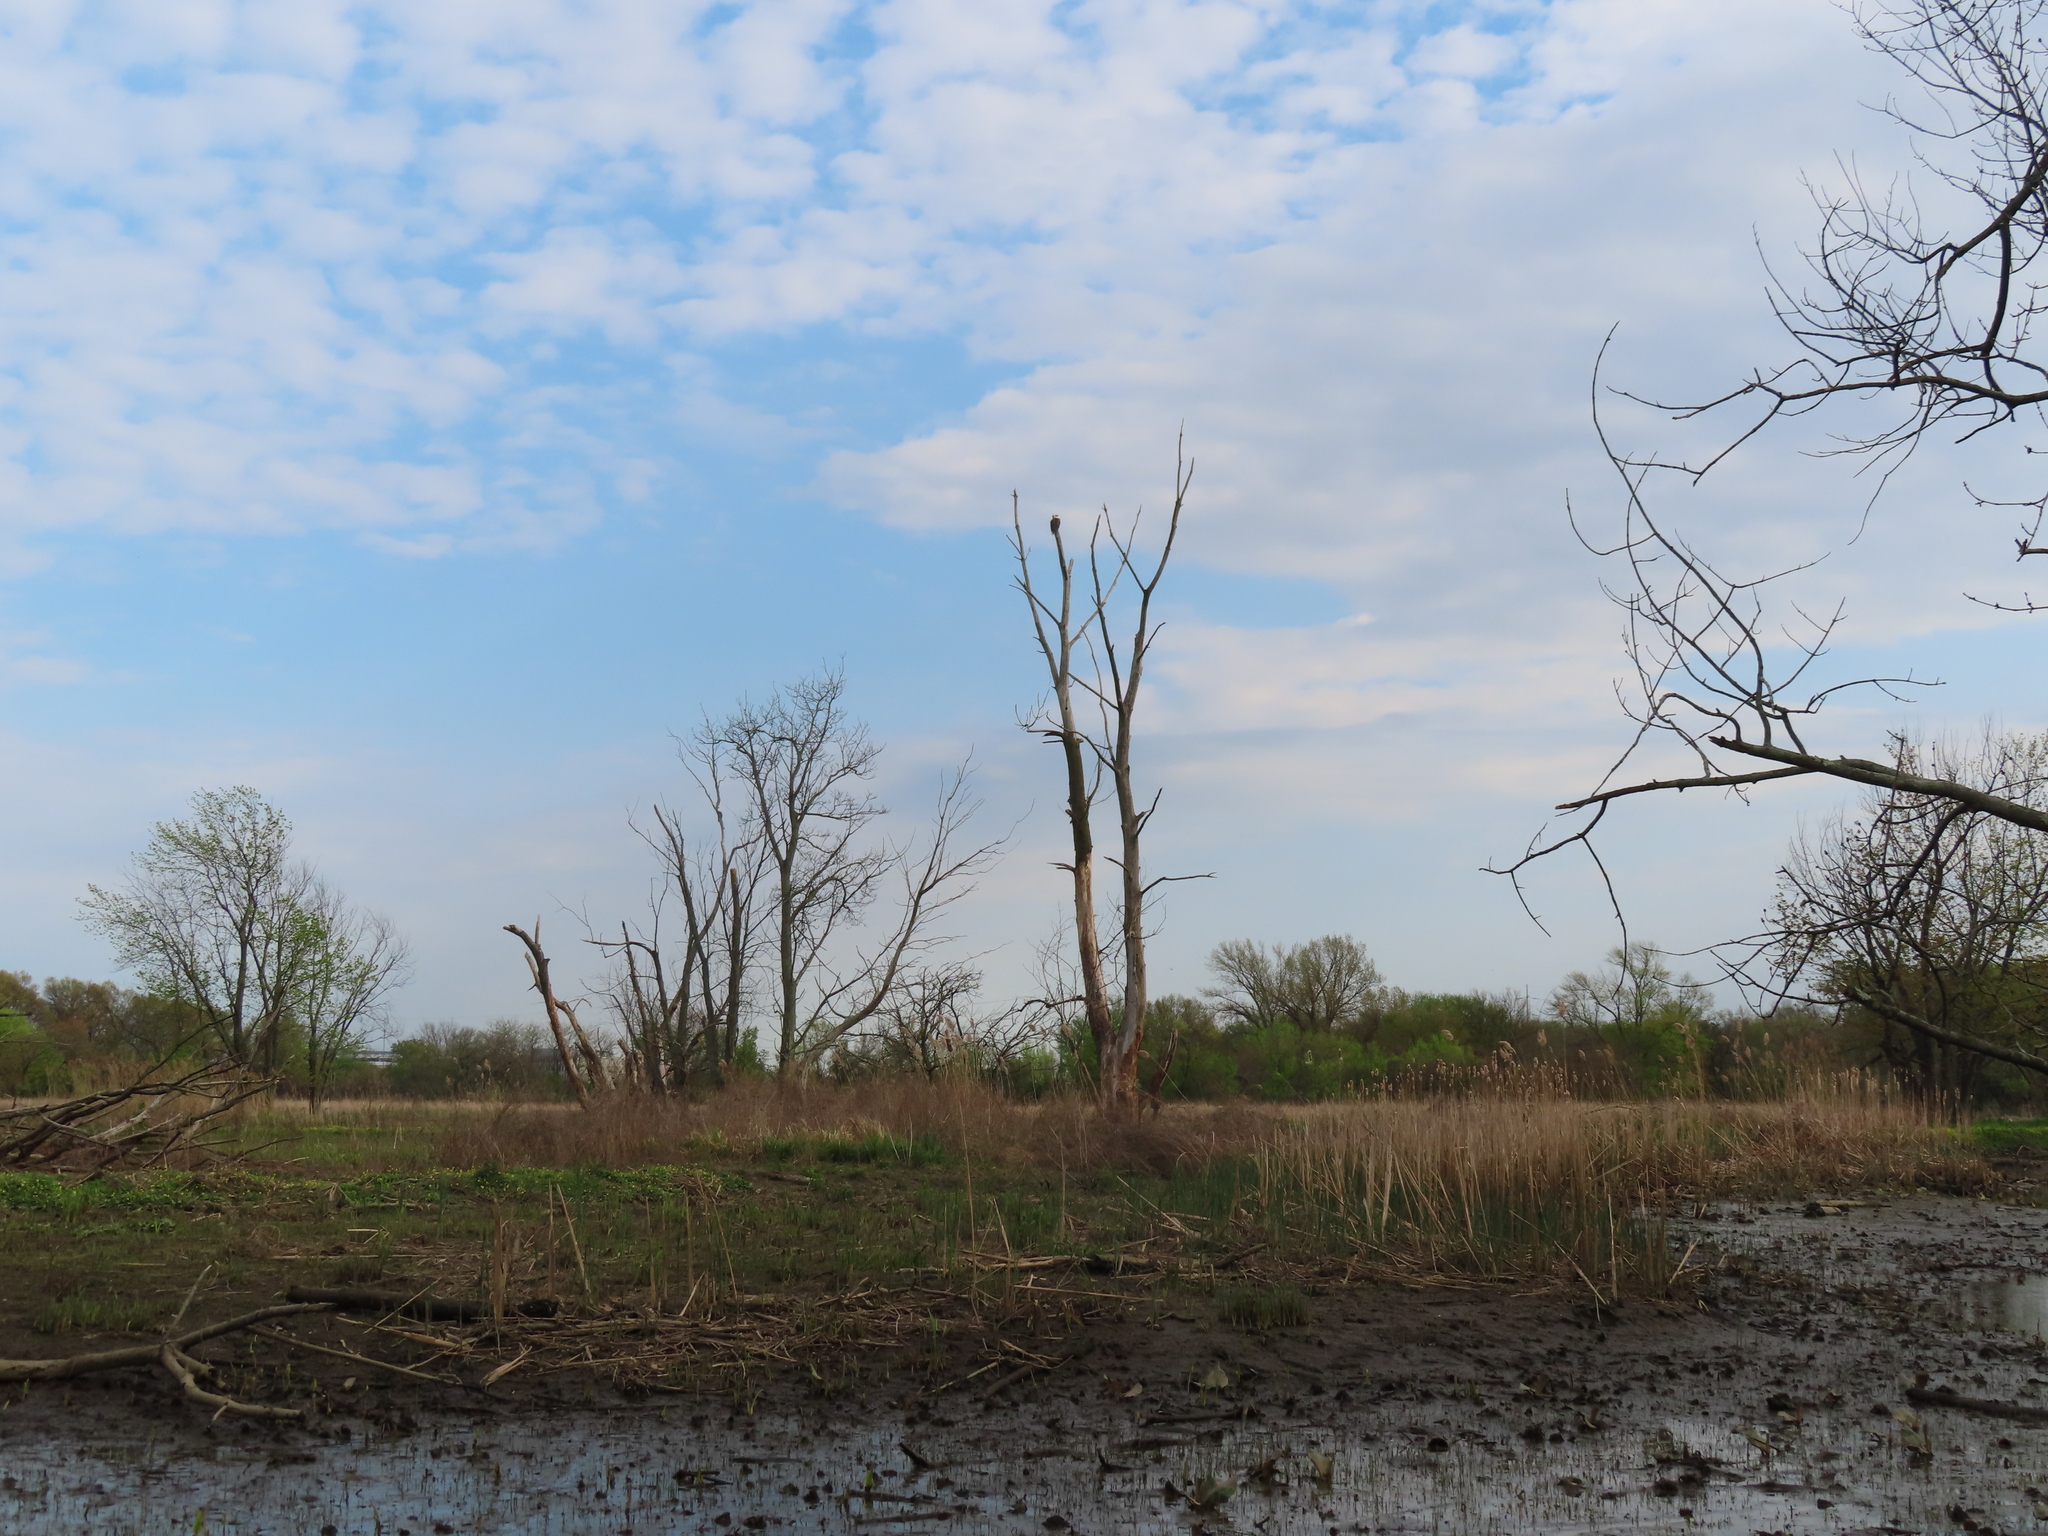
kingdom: Animalia
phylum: Chordata
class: Aves
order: Accipitriformes
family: Accipitridae
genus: Haliaeetus
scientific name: Haliaeetus leucocephalus
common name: Bald eagle
